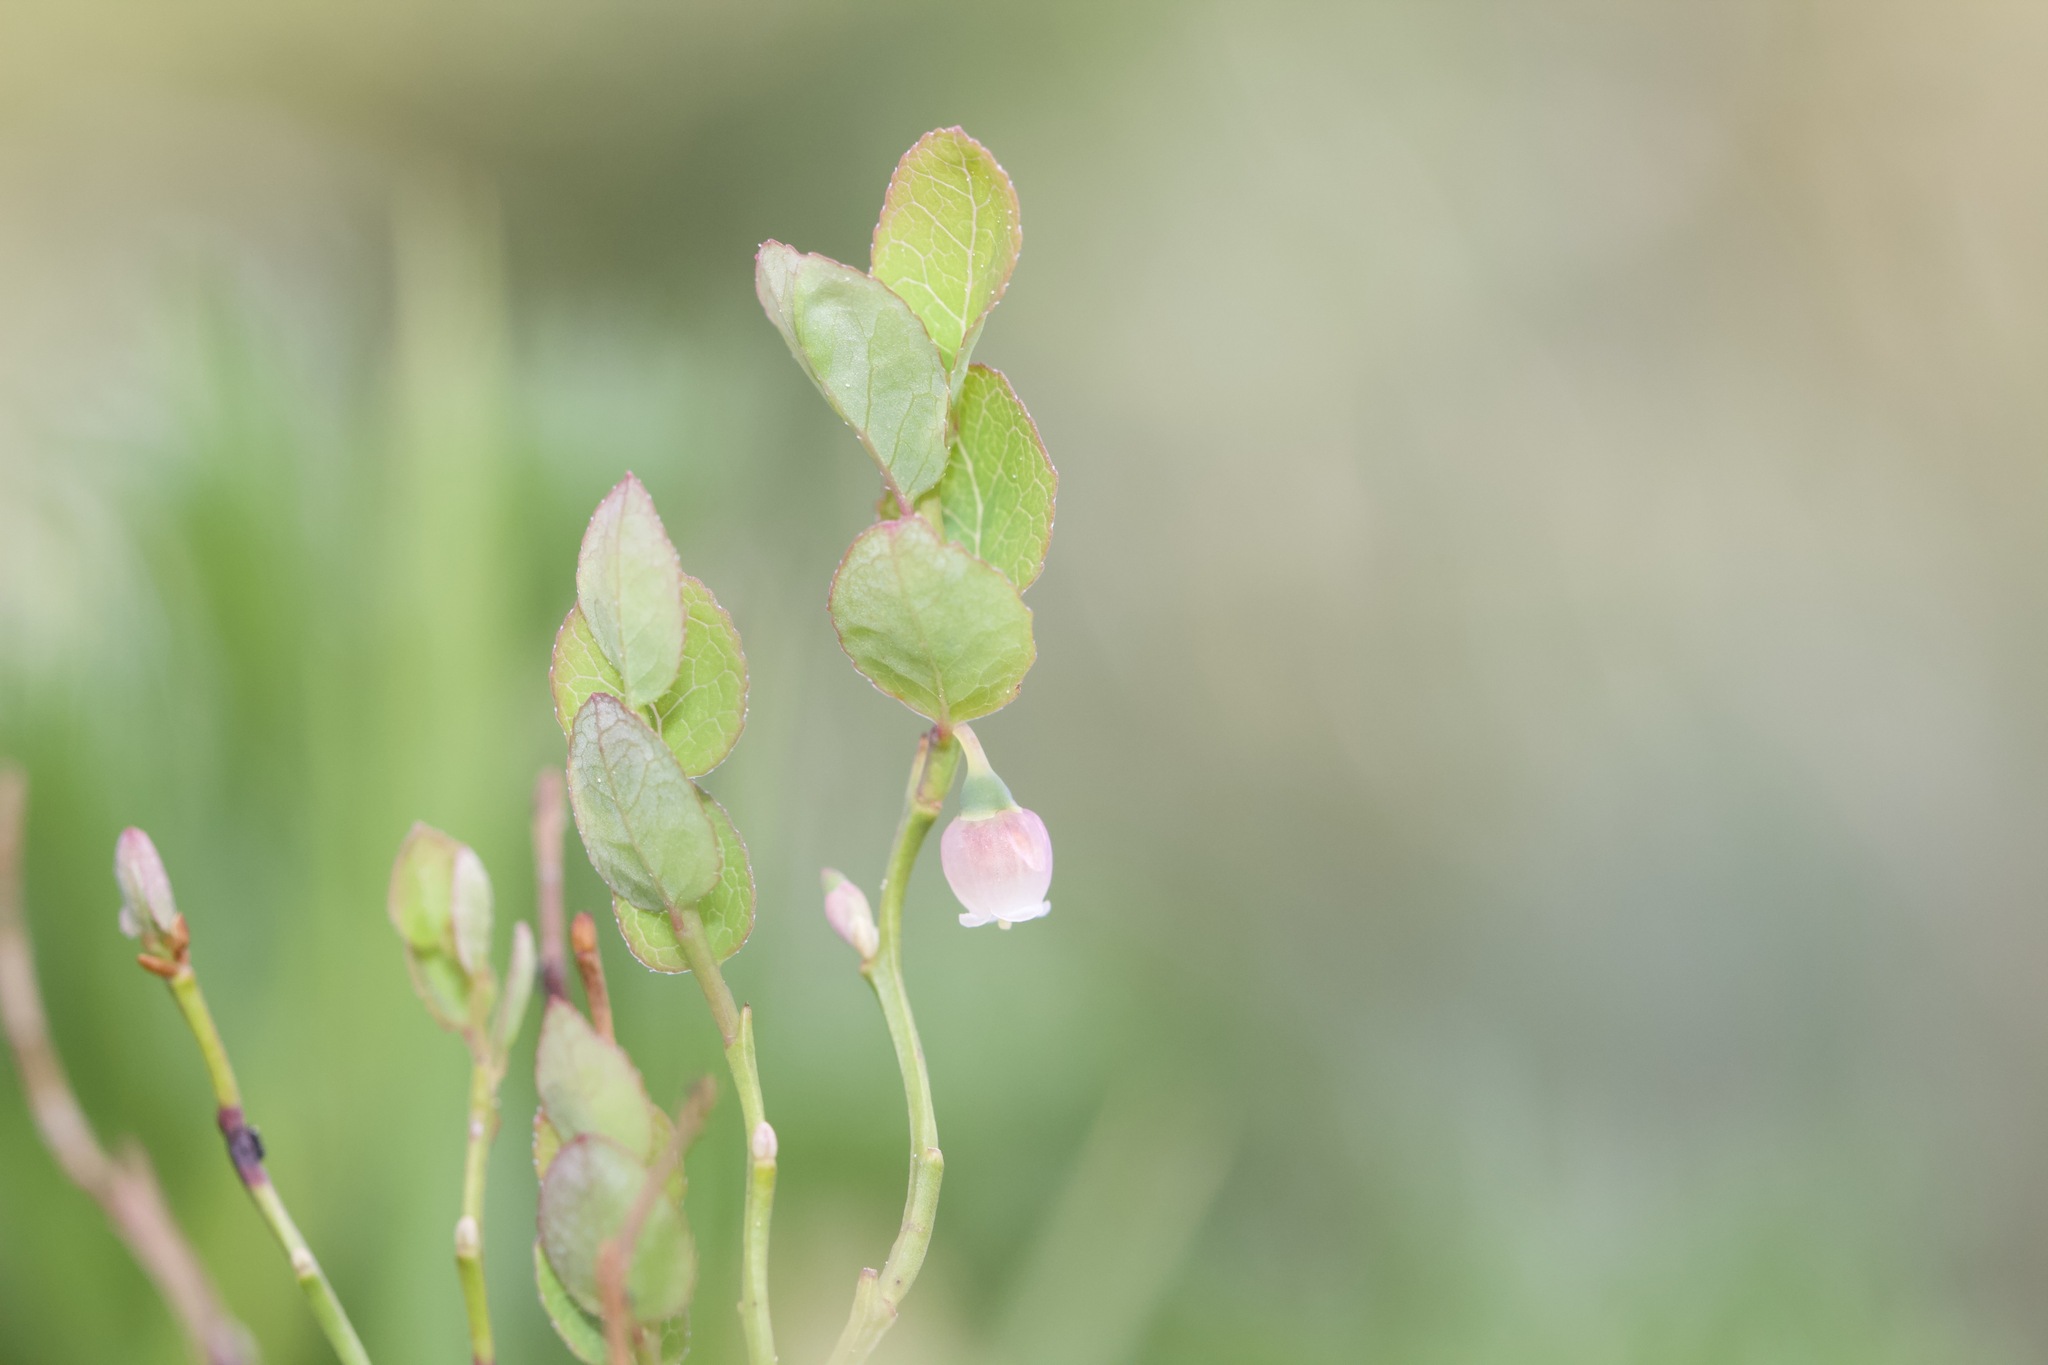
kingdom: Plantae
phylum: Tracheophyta
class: Magnoliopsida
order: Ericales
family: Ericaceae
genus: Vaccinium
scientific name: Vaccinium scoparium
